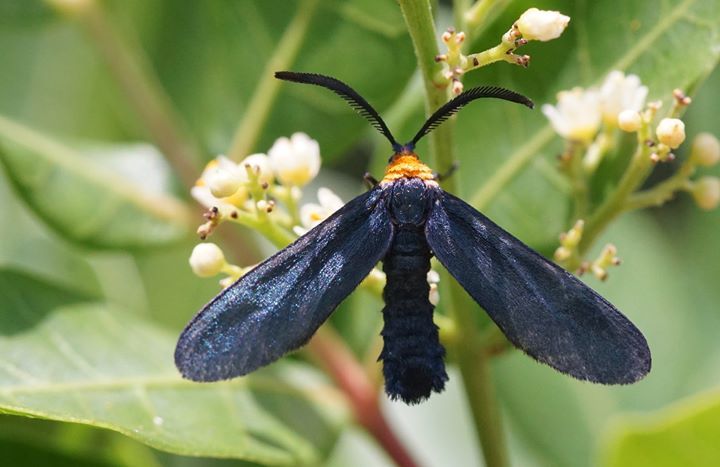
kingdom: Animalia
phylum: Arthropoda
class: Insecta
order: Lepidoptera
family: Zygaenidae
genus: Harrisina
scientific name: Harrisina americana
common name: Grapeleaf skeletonizer moth
